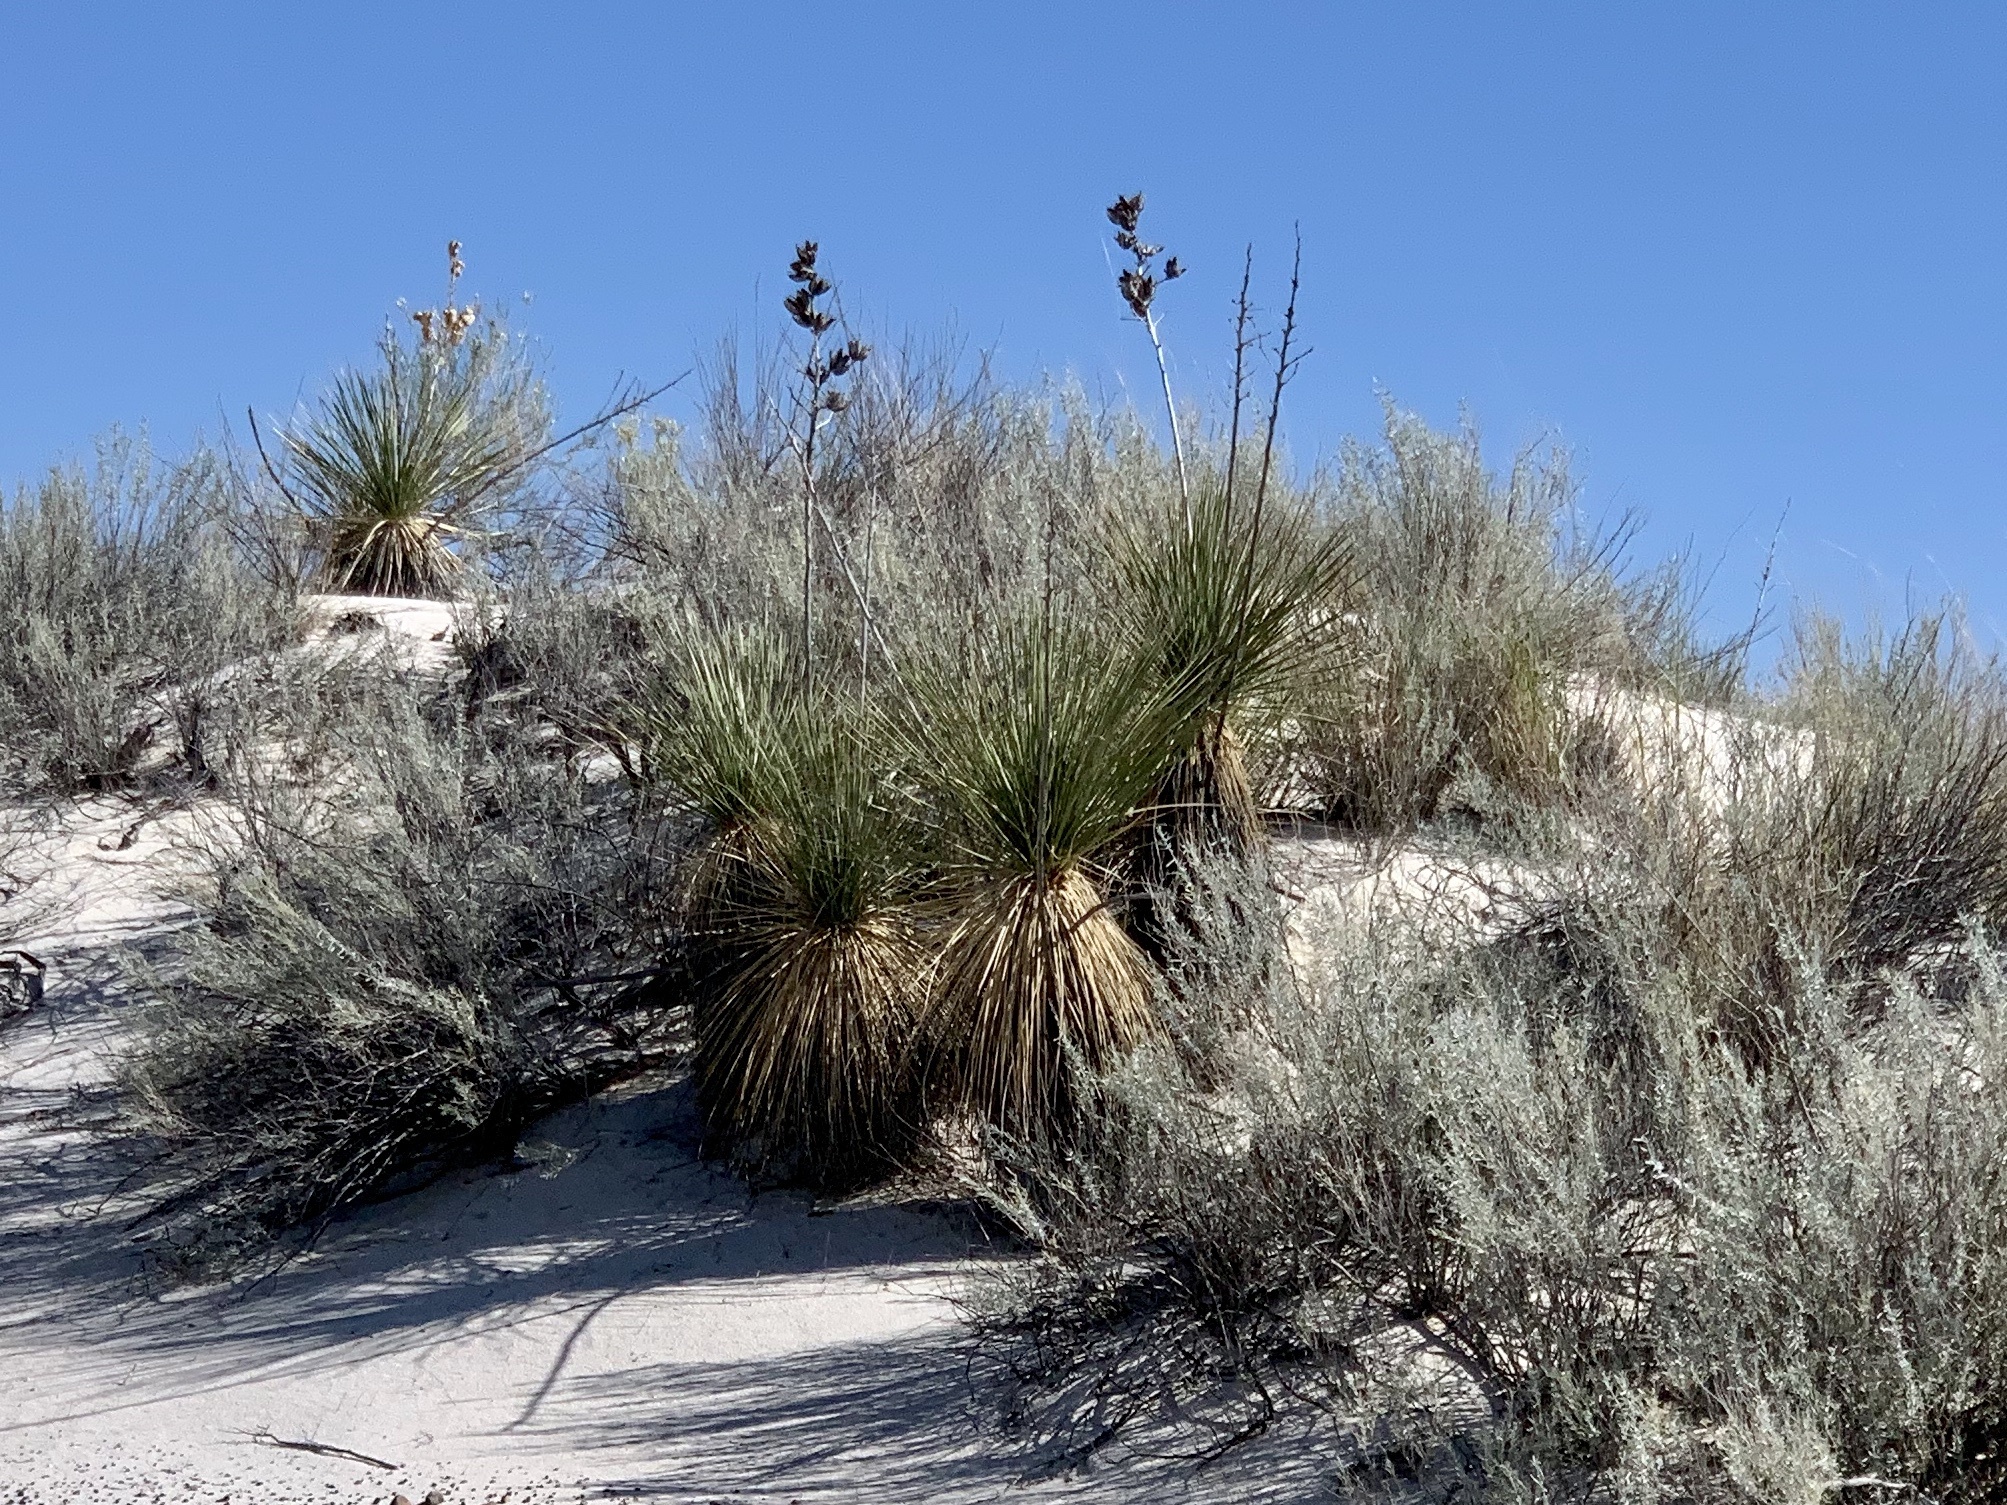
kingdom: Plantae
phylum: Tracheophyta
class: Liliopsida
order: Asparagales
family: Asparagaceae
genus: Yucca
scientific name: Yucca elata
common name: Palmella
